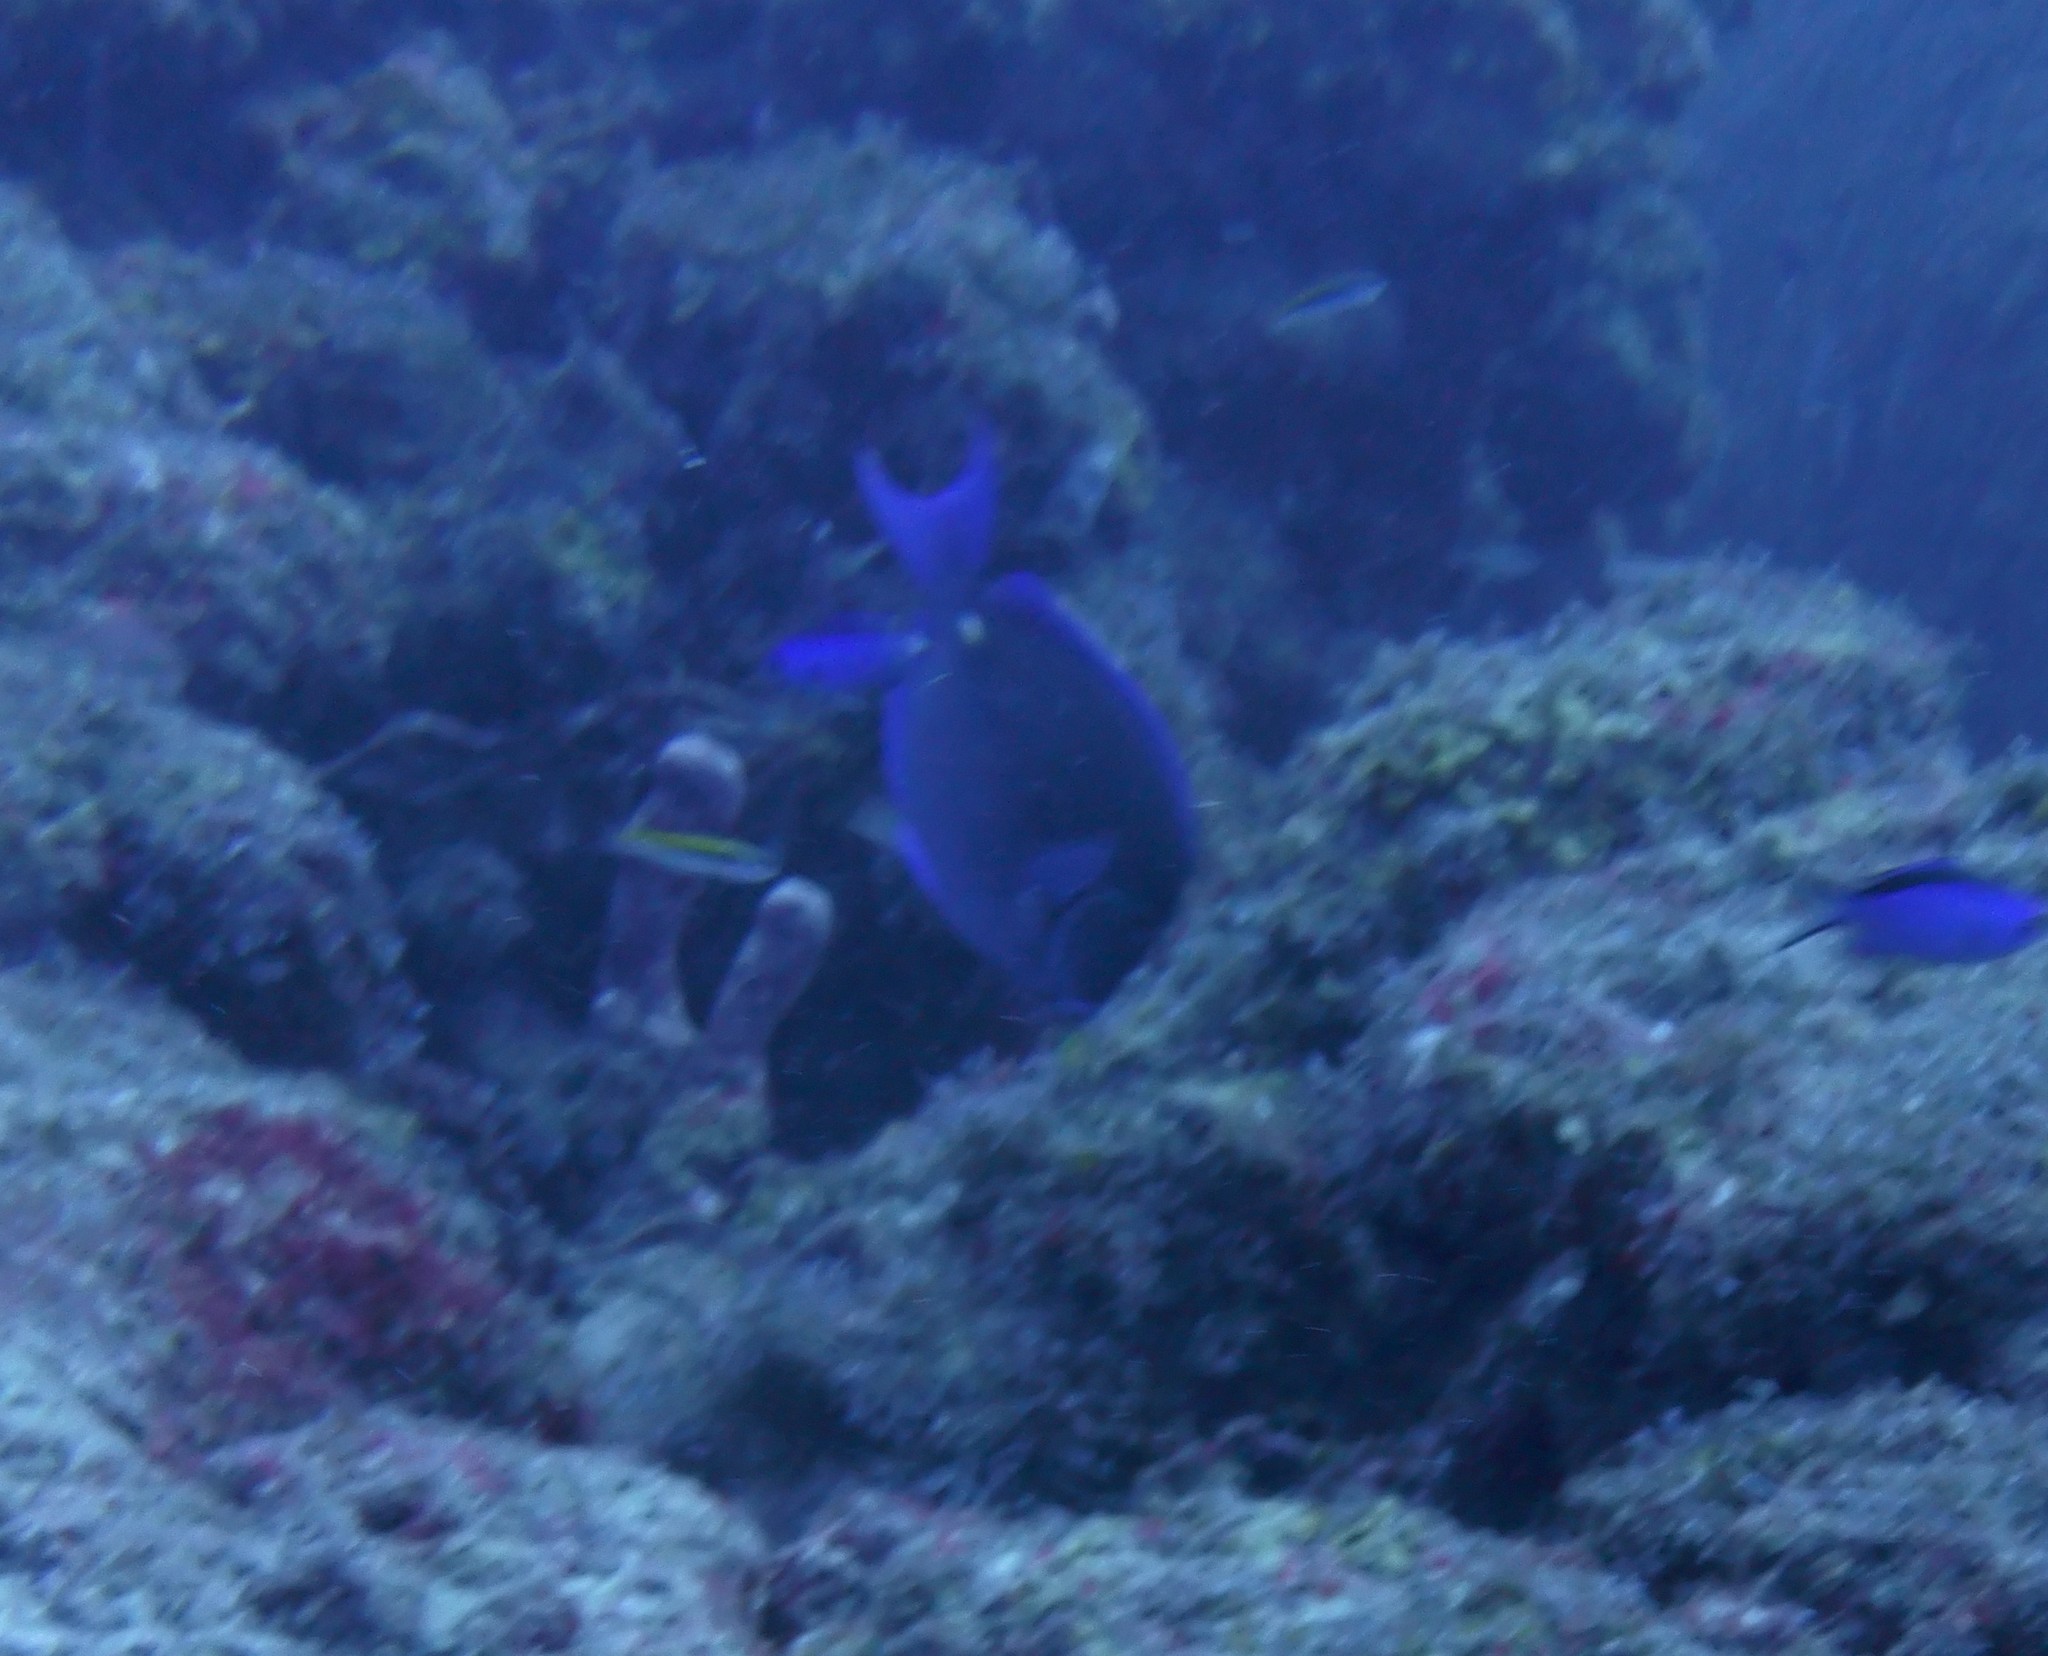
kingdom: Animalia
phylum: Chordata
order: Perciformes
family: Acanthuridae
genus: Acanthurus
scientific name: Acanthurus coeruleus
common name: Blue tang
